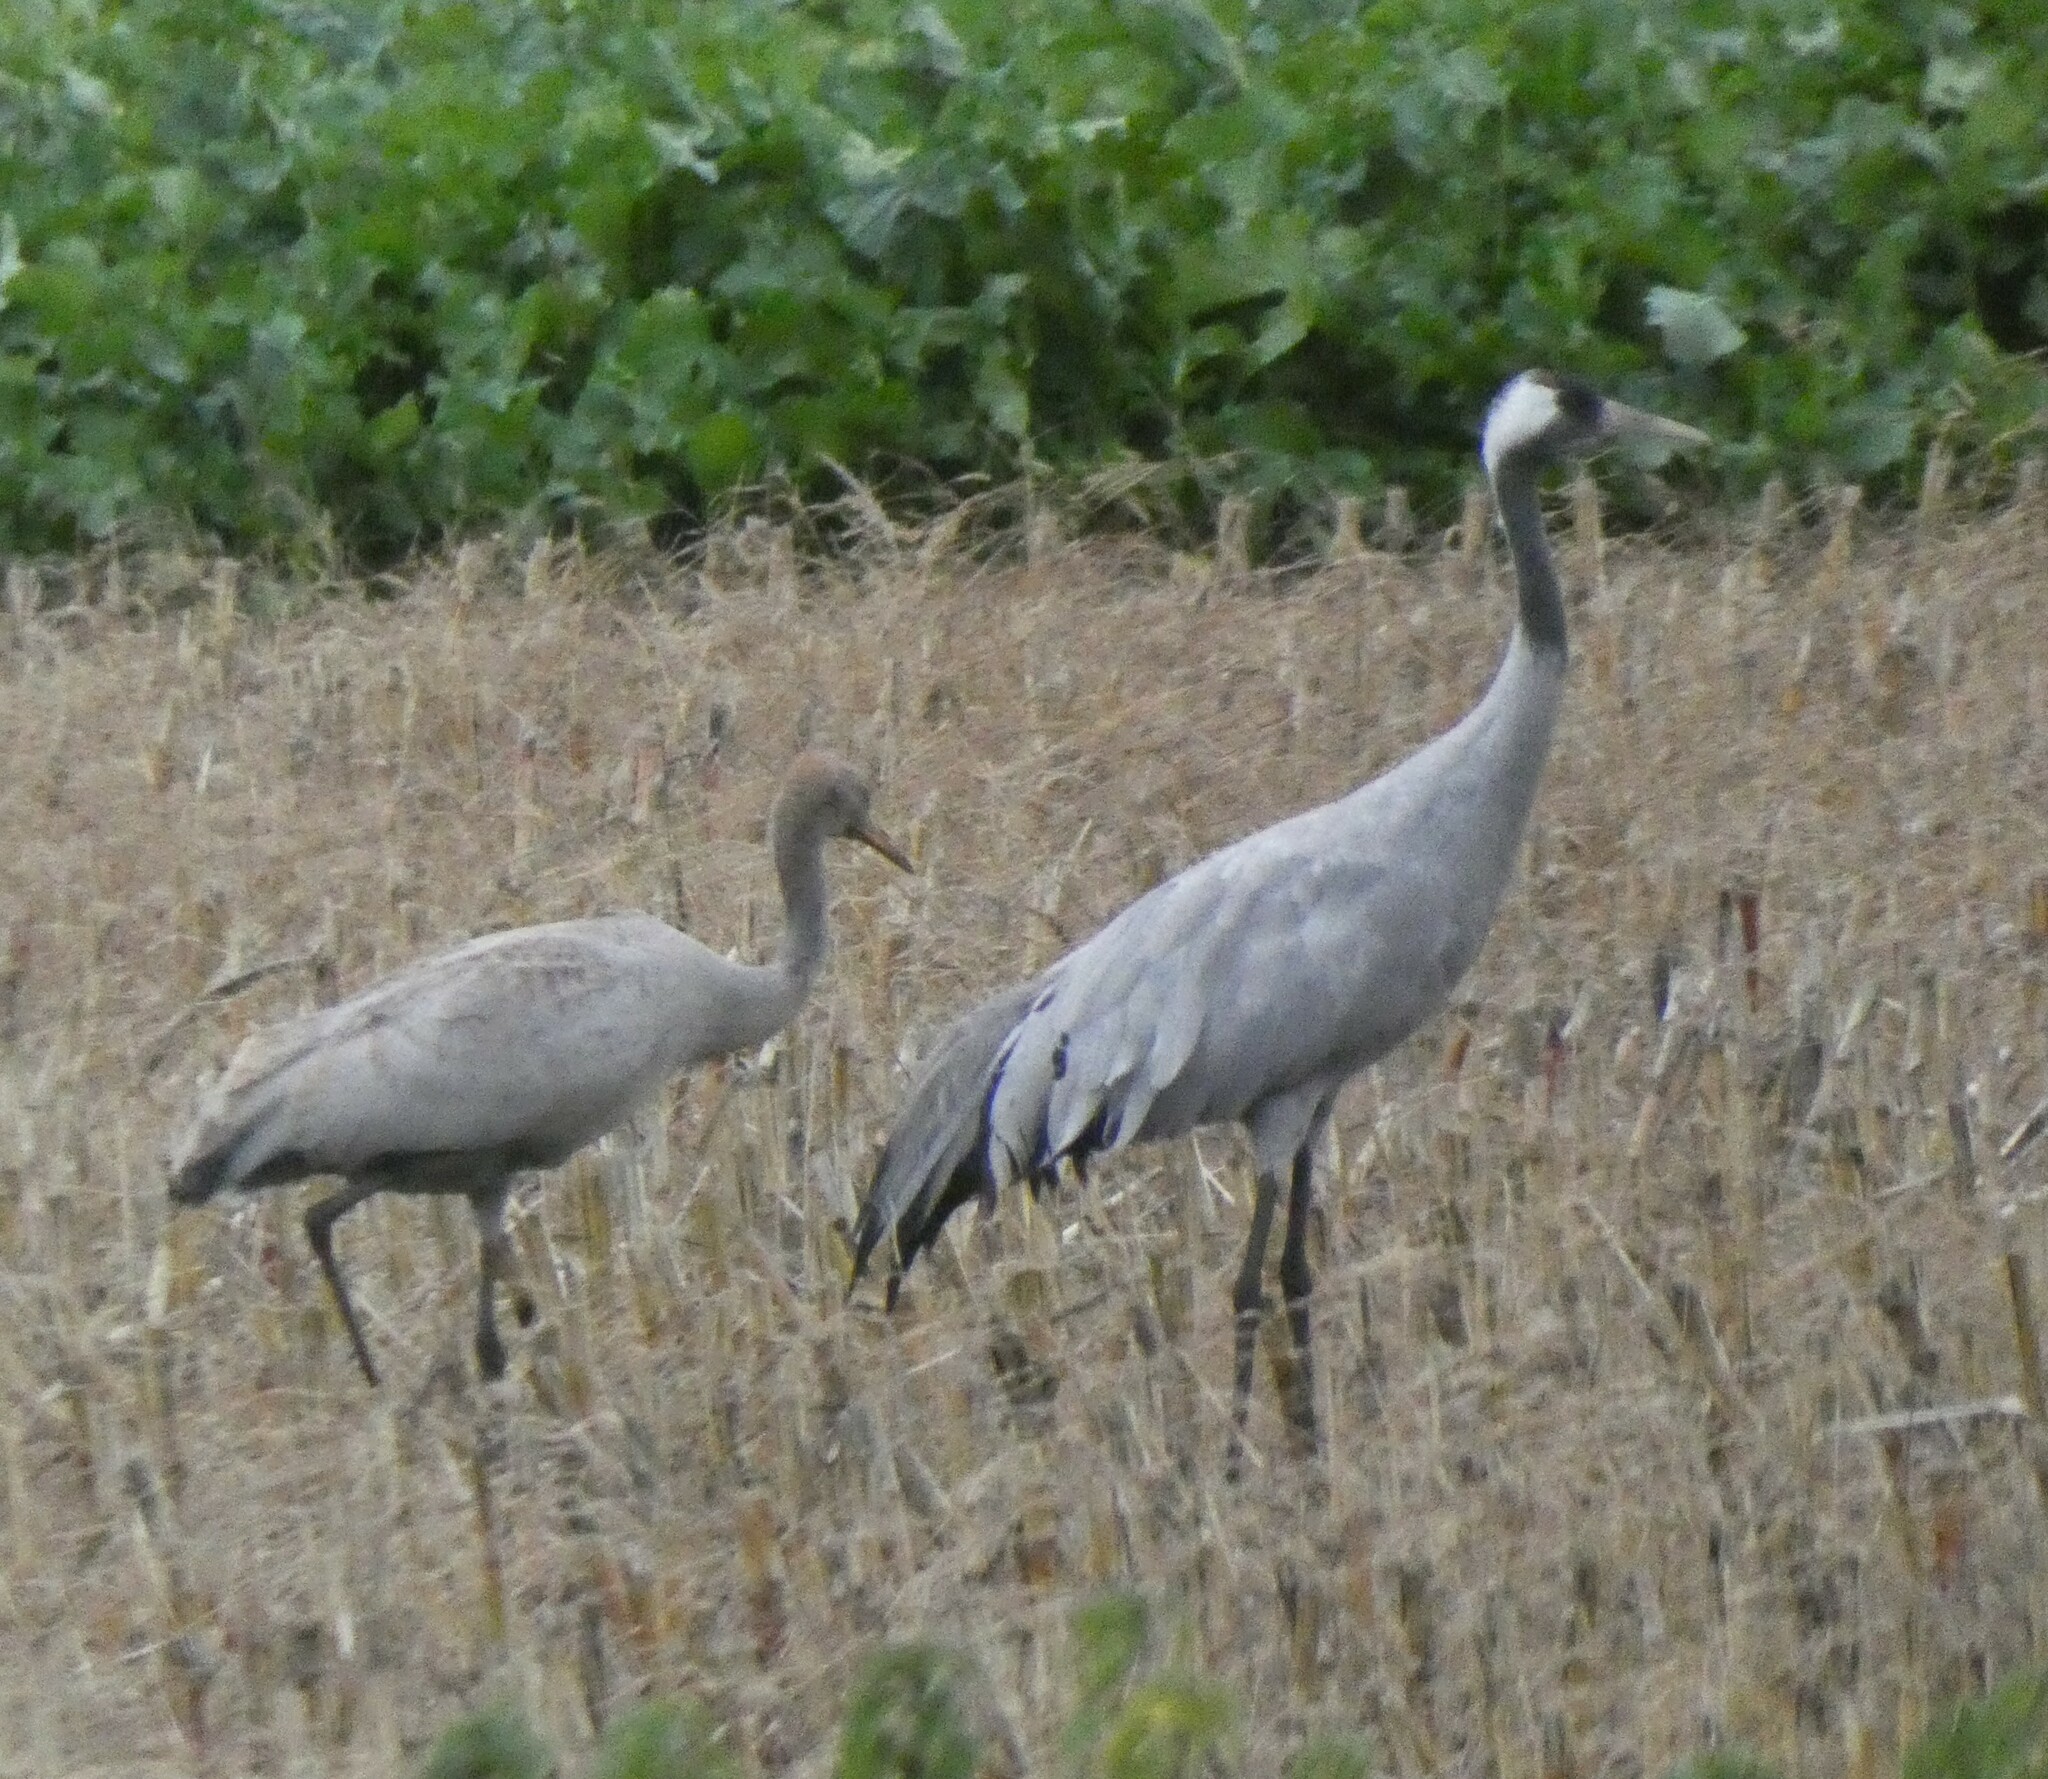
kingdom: Animalia
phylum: Chordata
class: Aves
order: Gruiformes
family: Gruidae
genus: Grus
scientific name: Grus grus
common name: Common crane
